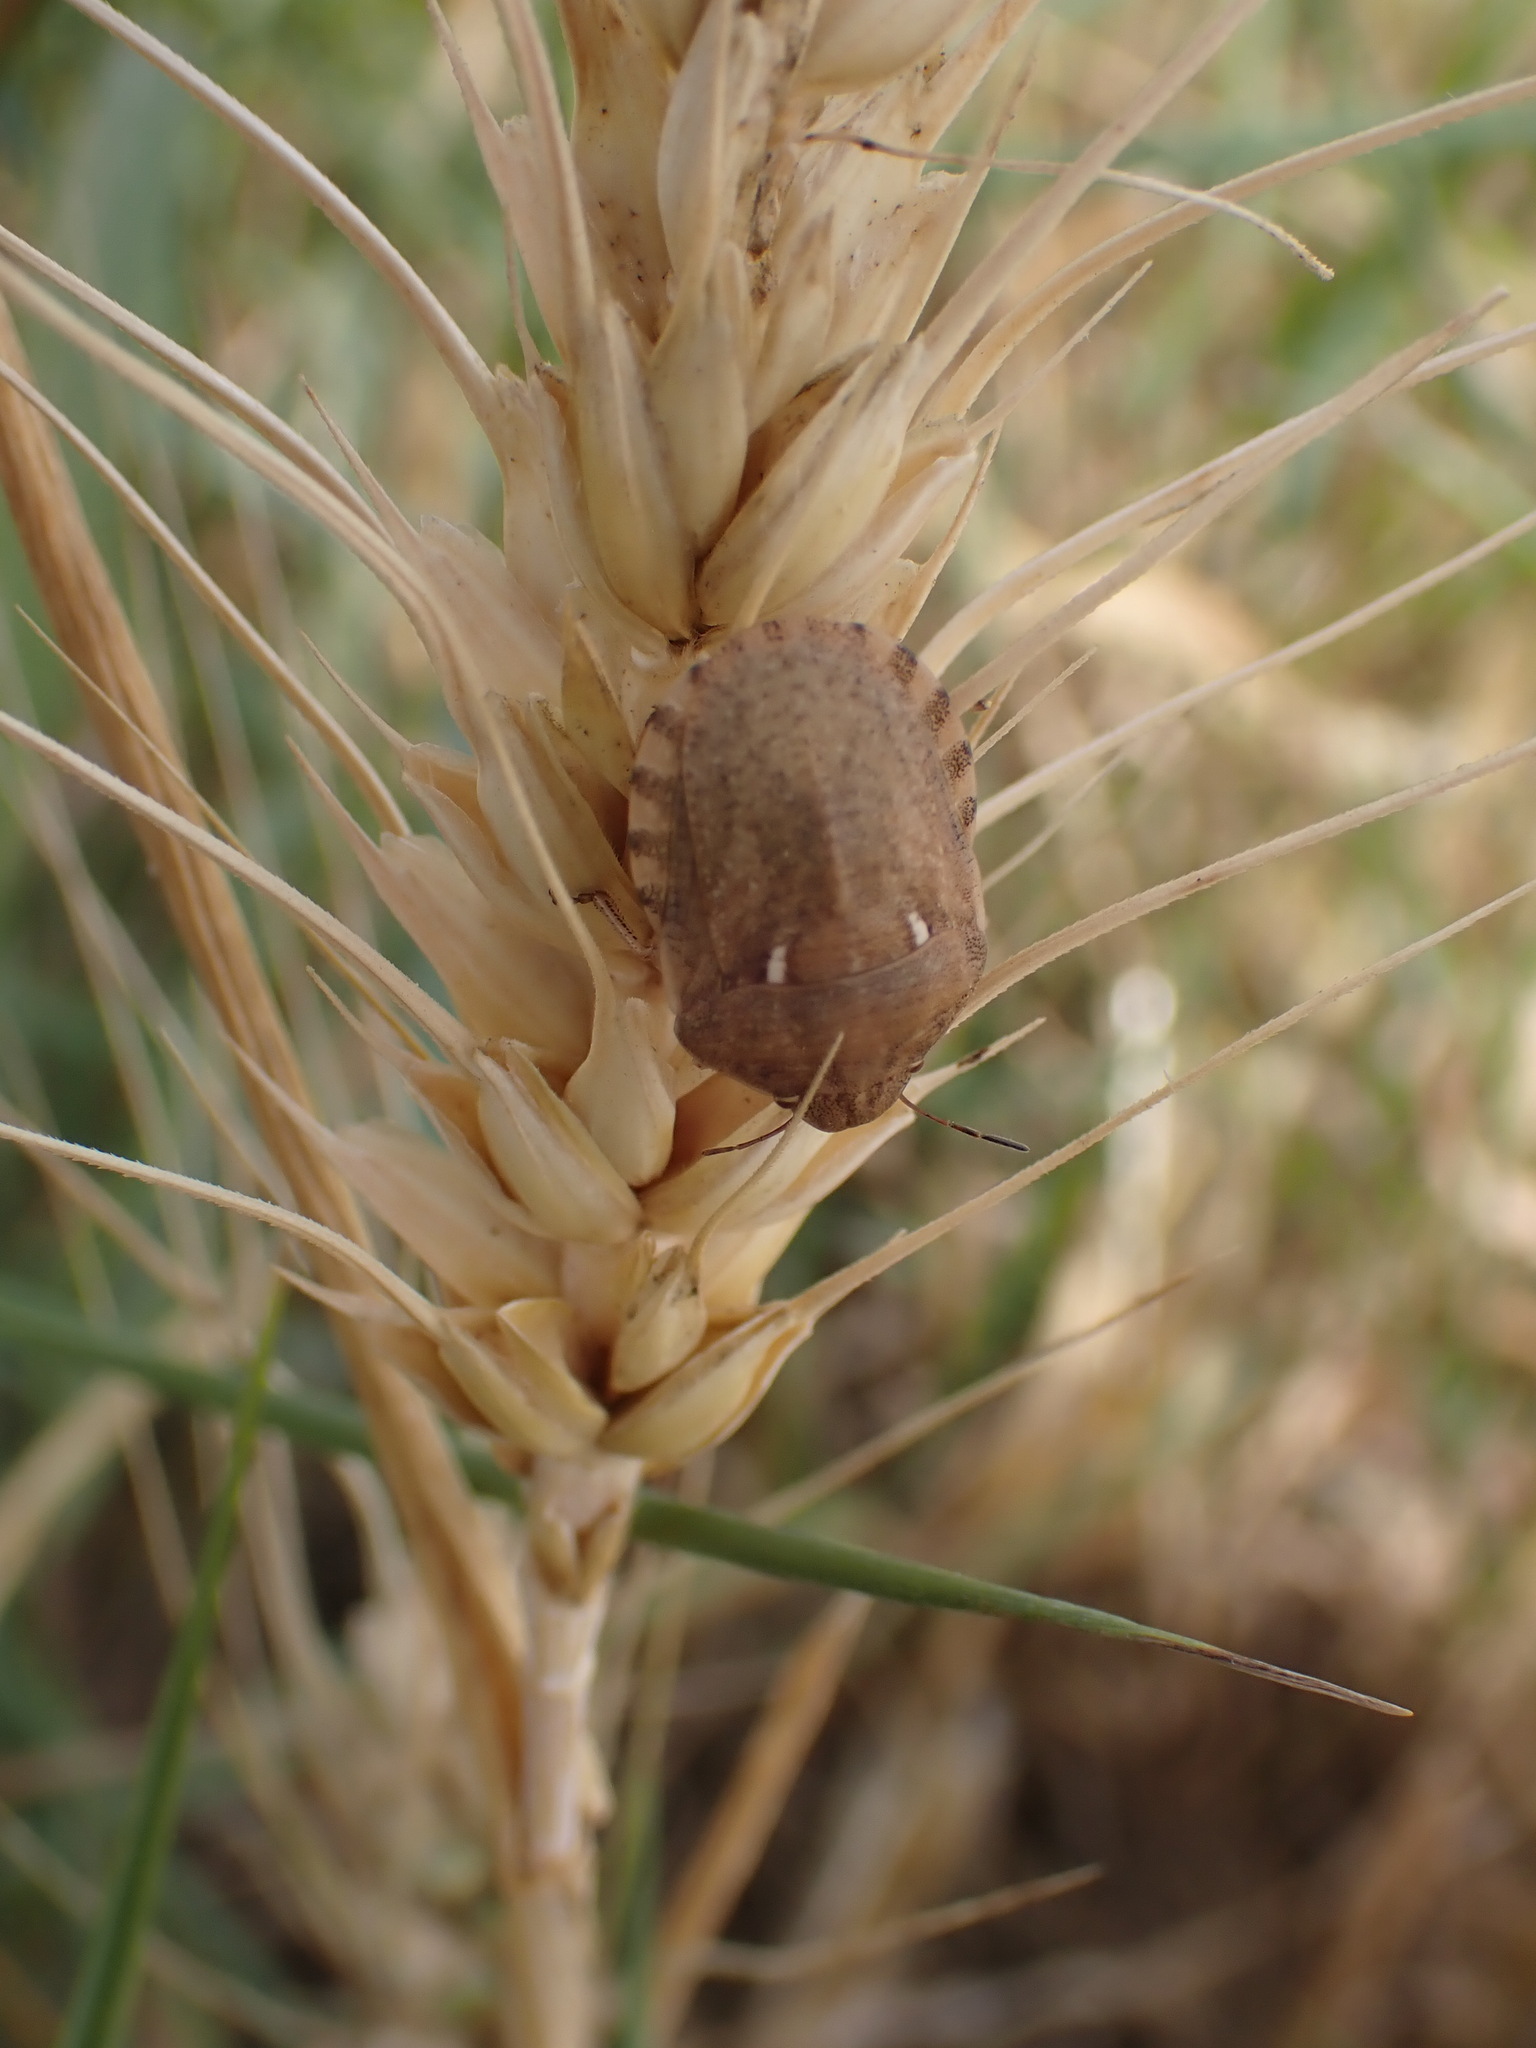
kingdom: Animalia
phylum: Arthropoda
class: Insecta
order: Hemiptera
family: Scutelleridae
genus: Eurygaster
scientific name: Eurygaster maura
